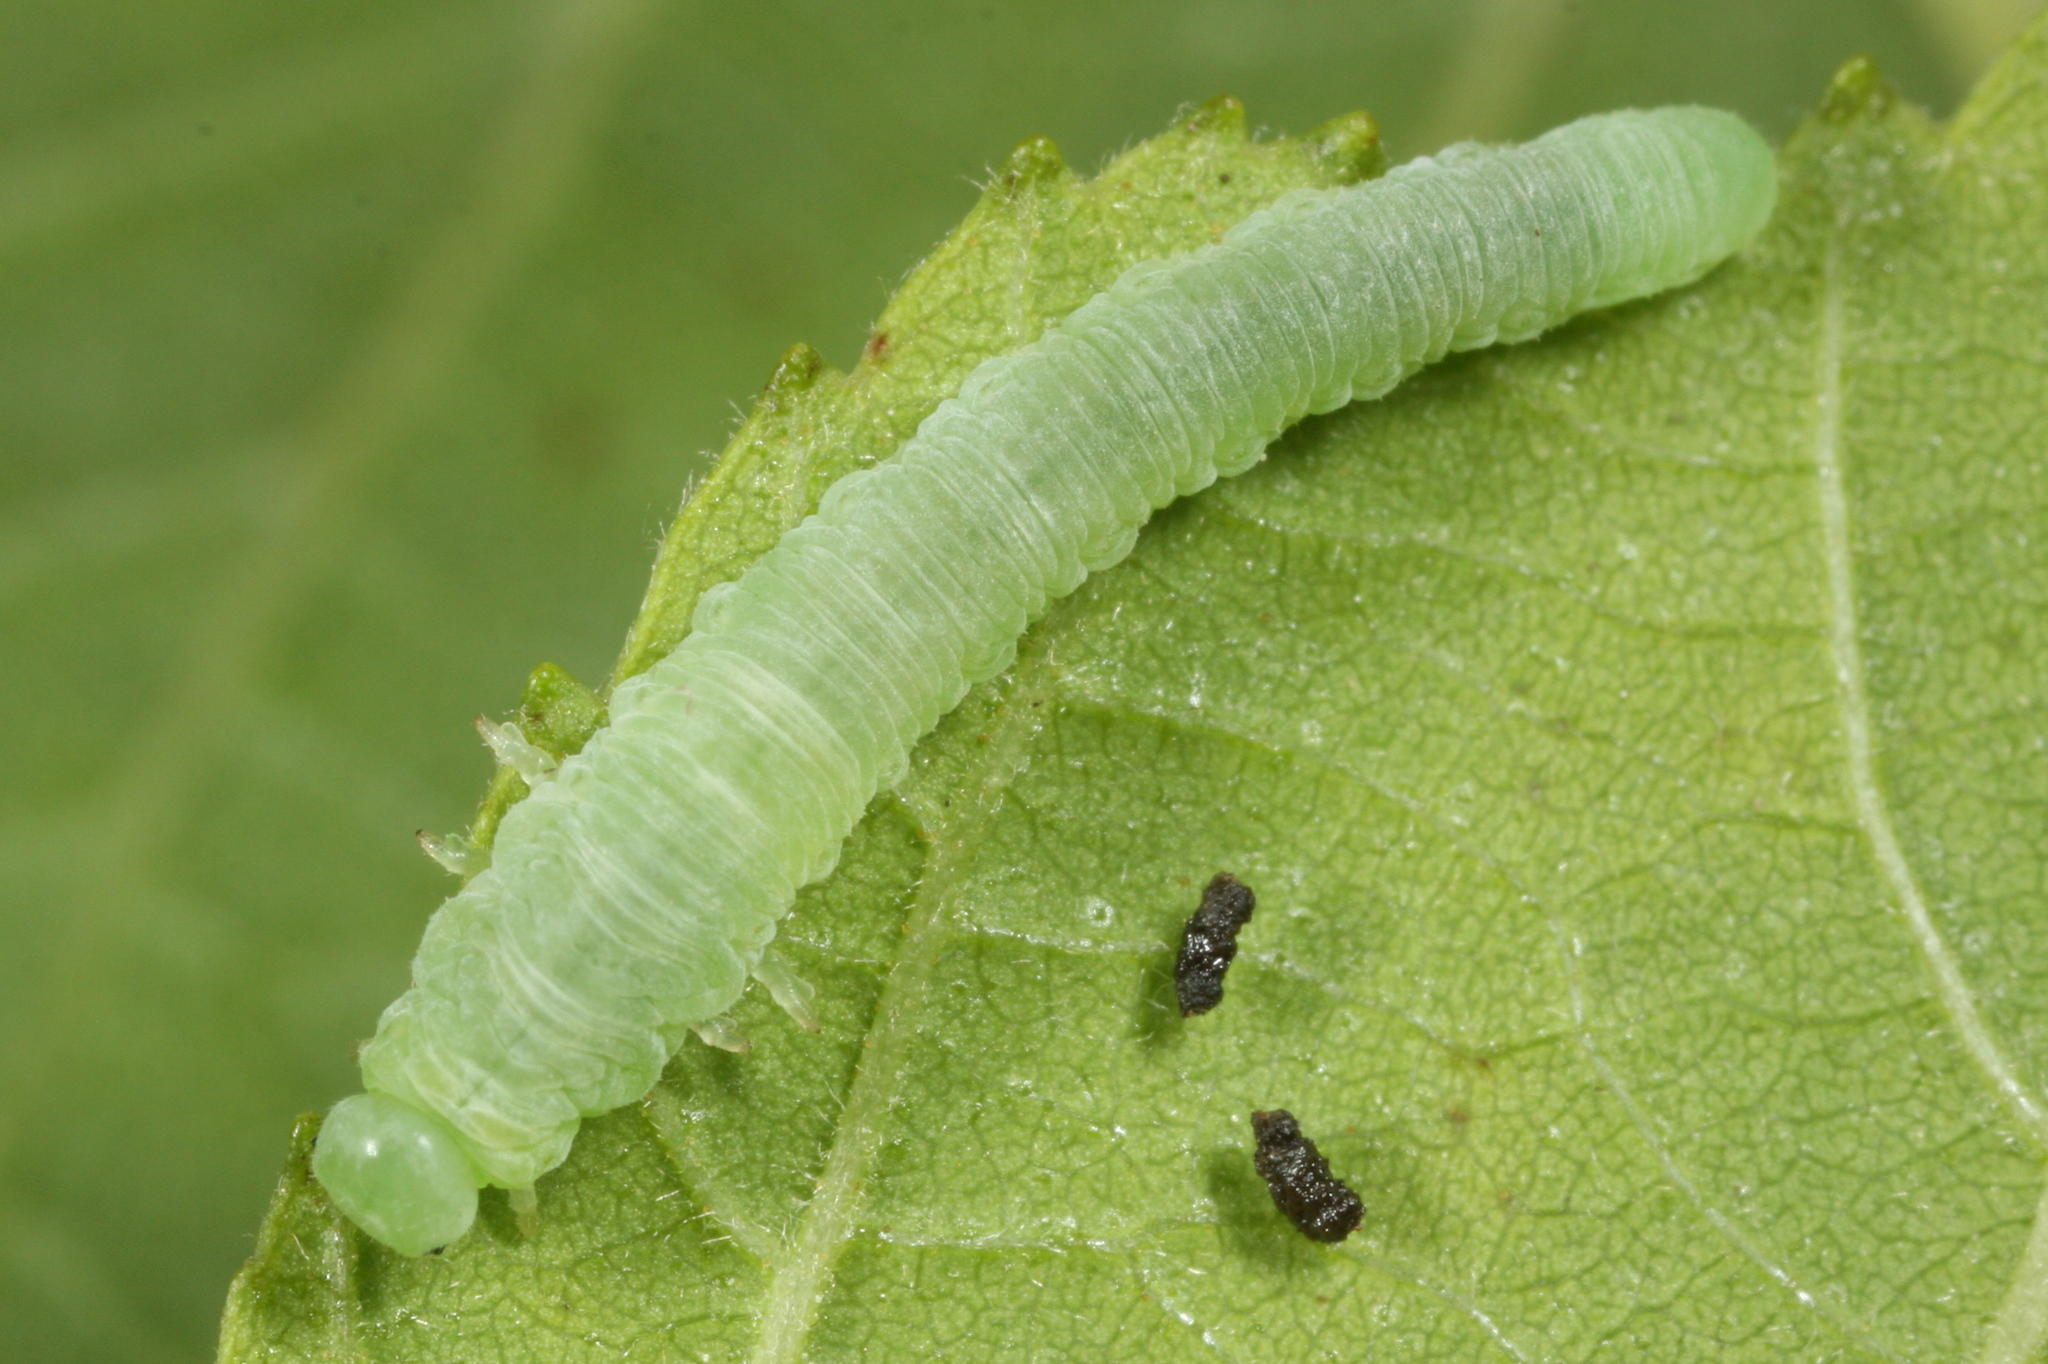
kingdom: Animalia
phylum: Arthropoda
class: Insecta
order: Hymenoptera
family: Tenthredinidae
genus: Monsoma
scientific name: Monsoma pulveratum
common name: Green alder sawfly
